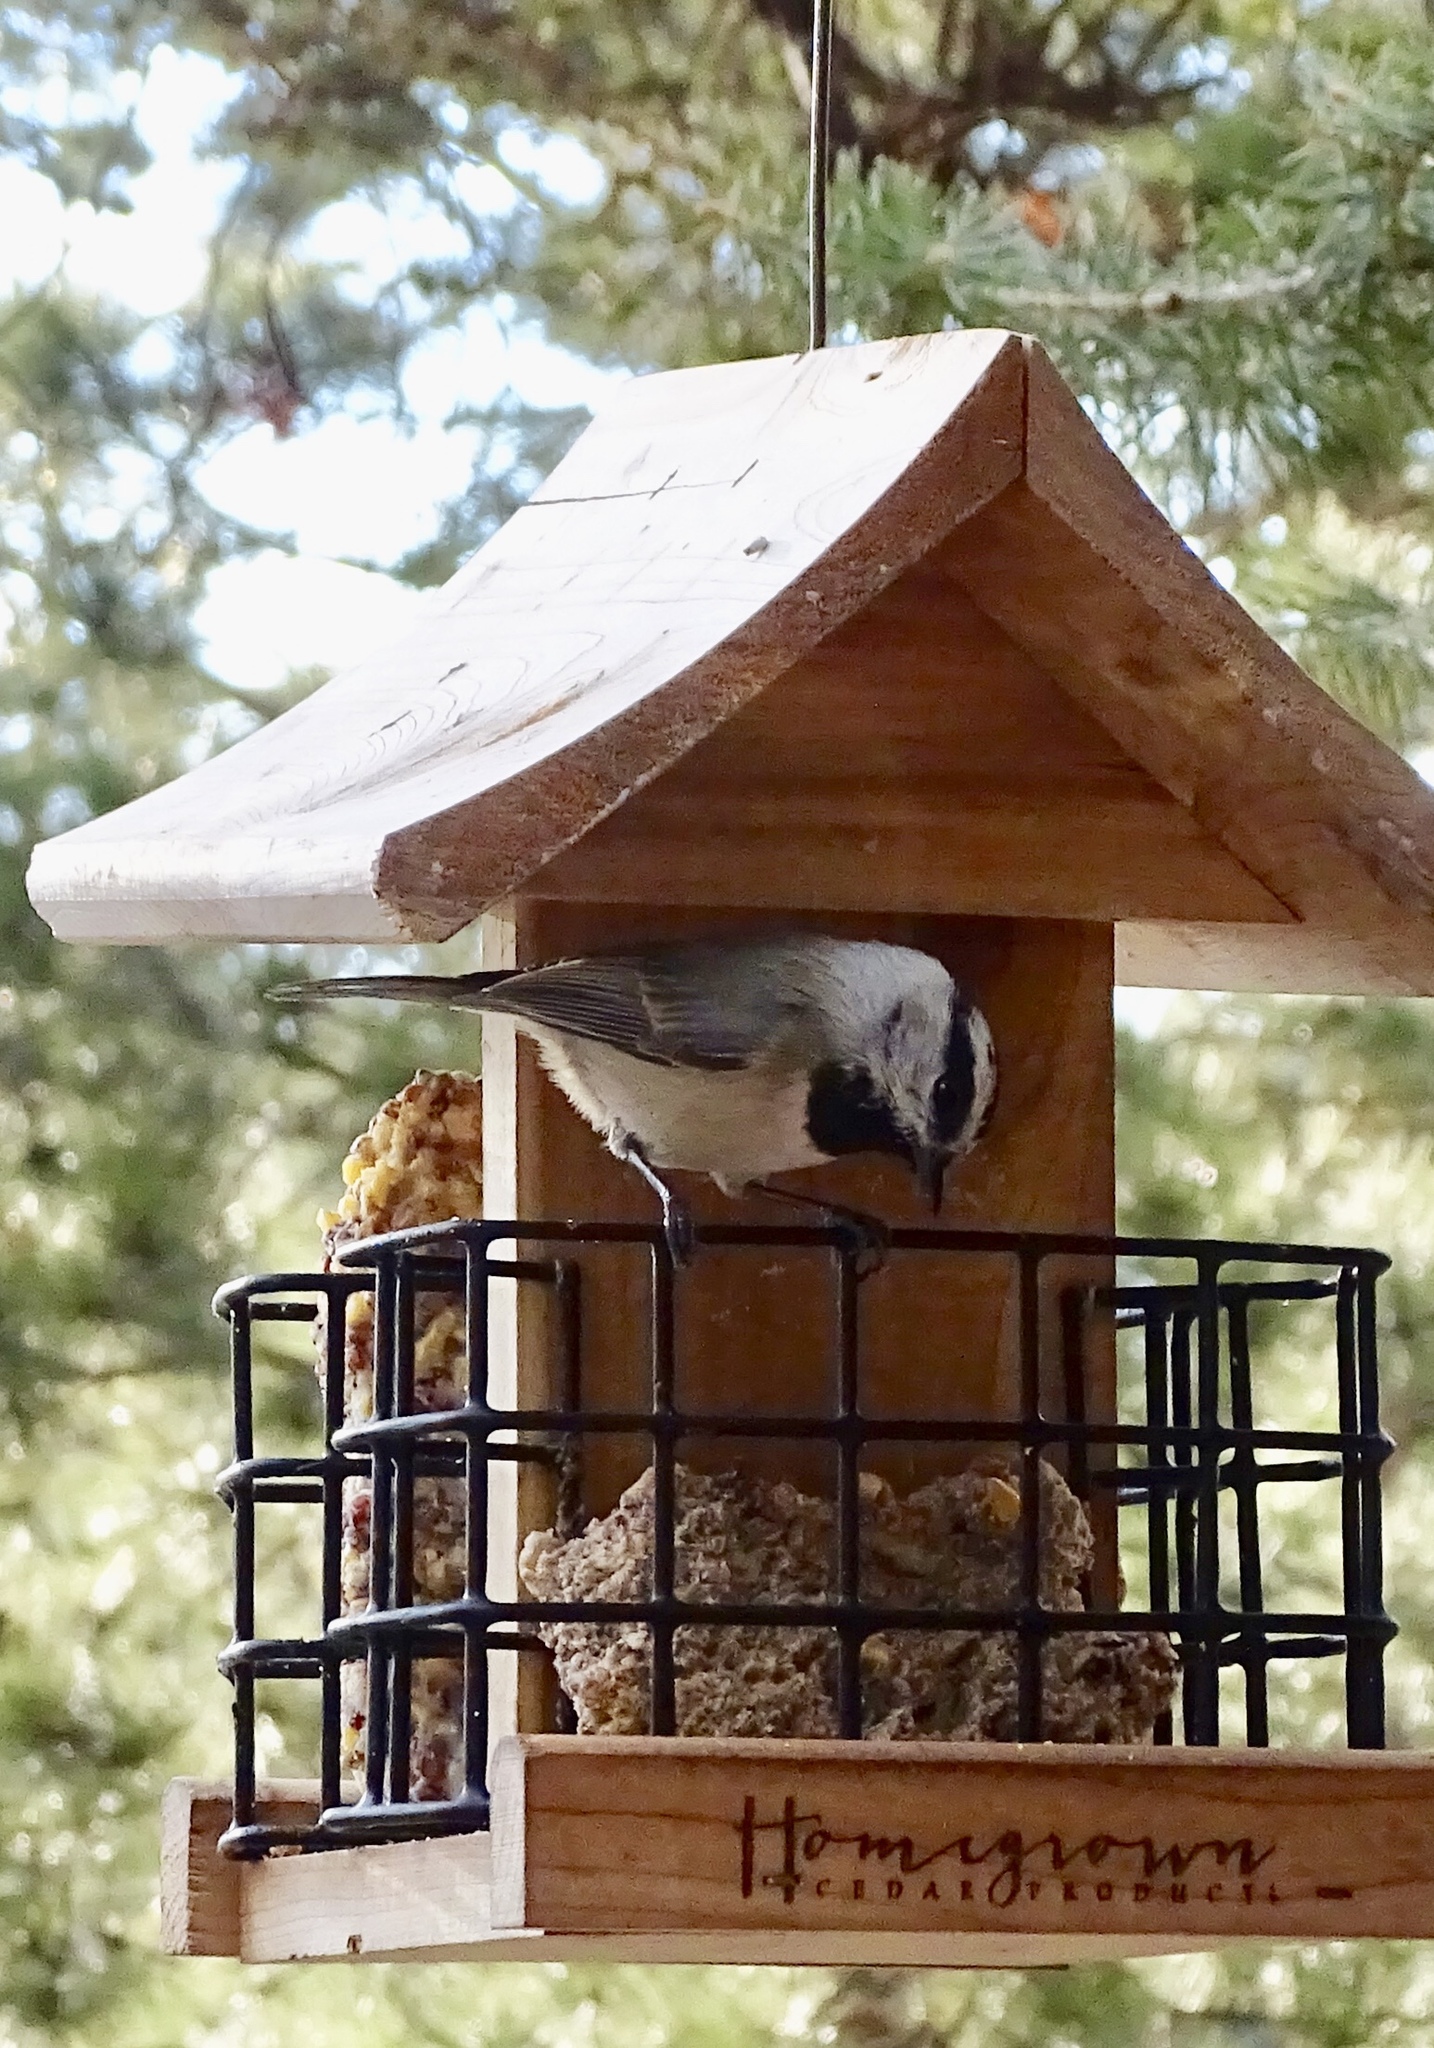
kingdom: Animalia
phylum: Chordata
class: Aves
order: Passeriformes
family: Paridae
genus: Poecile
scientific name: Poecile gambeli
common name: Mountain chickadee
